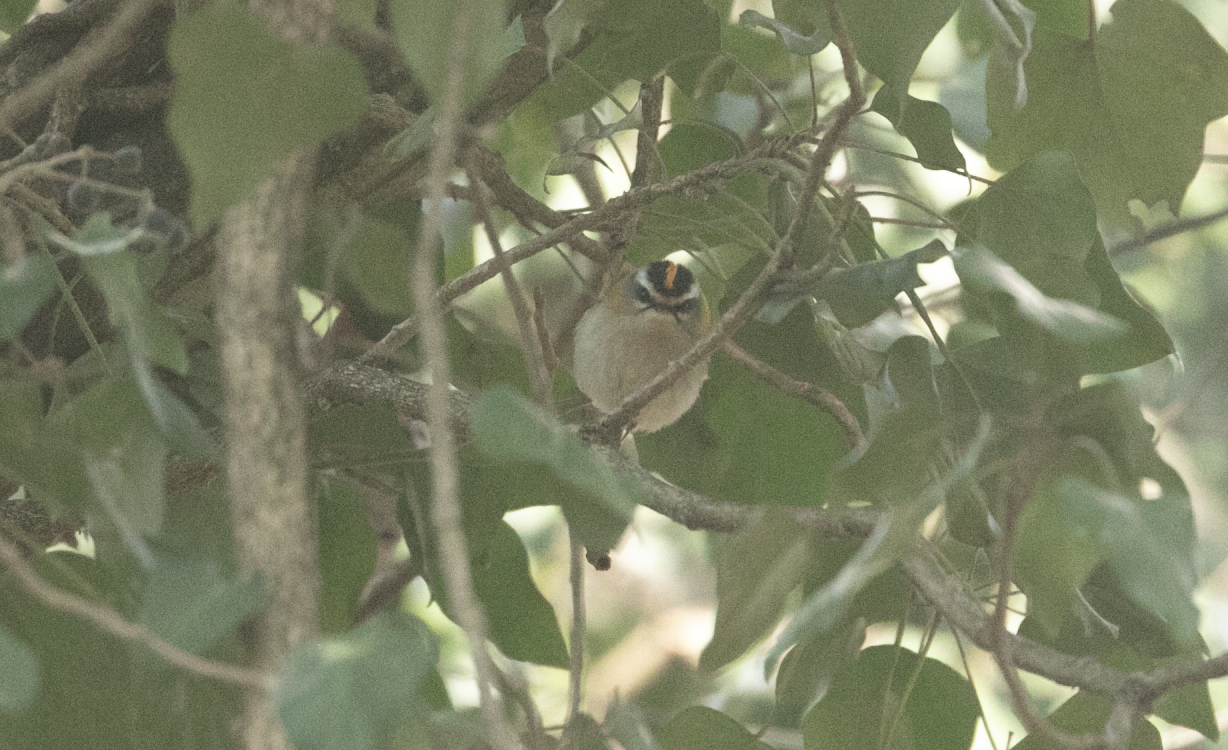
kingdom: Animalia
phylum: Chordata
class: Aves
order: Passeriformes
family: Regulidae
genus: Regulus
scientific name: Regulus ignicapilla
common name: Firecrest
